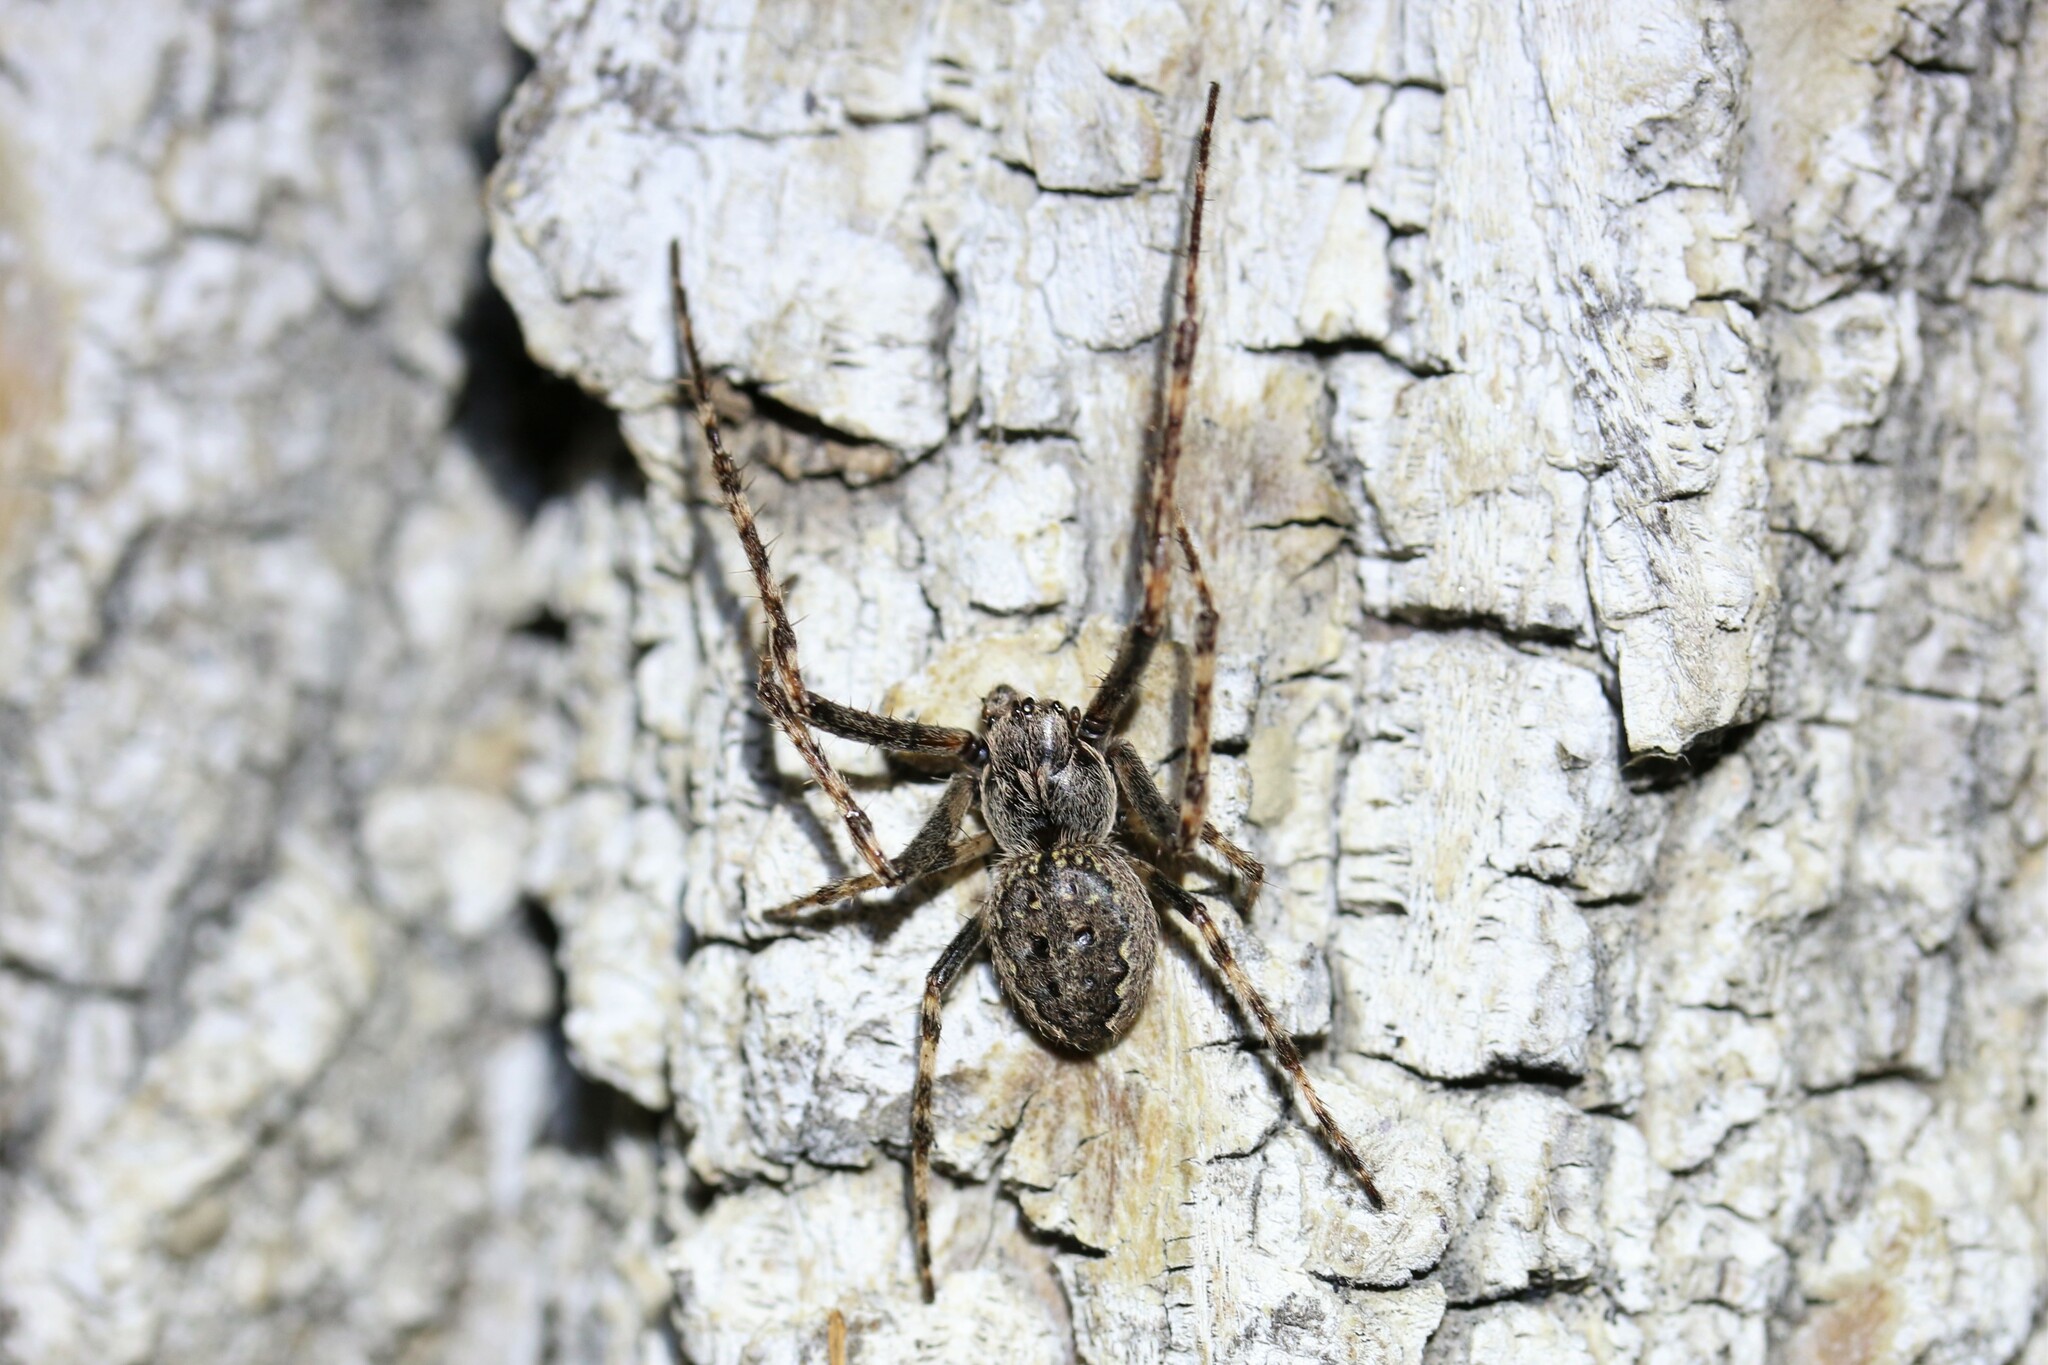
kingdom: Animalia
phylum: Arthropoda
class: Arachnida
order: Araneae
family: Araneidae
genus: Nuctenea
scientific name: Nuctenea umbratica
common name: Toad spider
